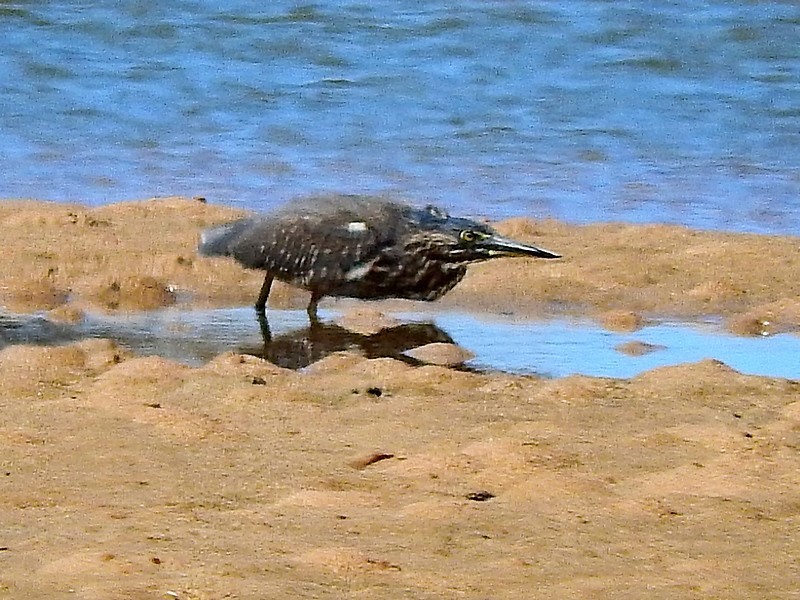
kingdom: Animalia
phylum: Chordata
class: Aves
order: Pelecaniformes
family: Ardeidae
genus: Butorides
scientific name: Butorides striata
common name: Striated heron
